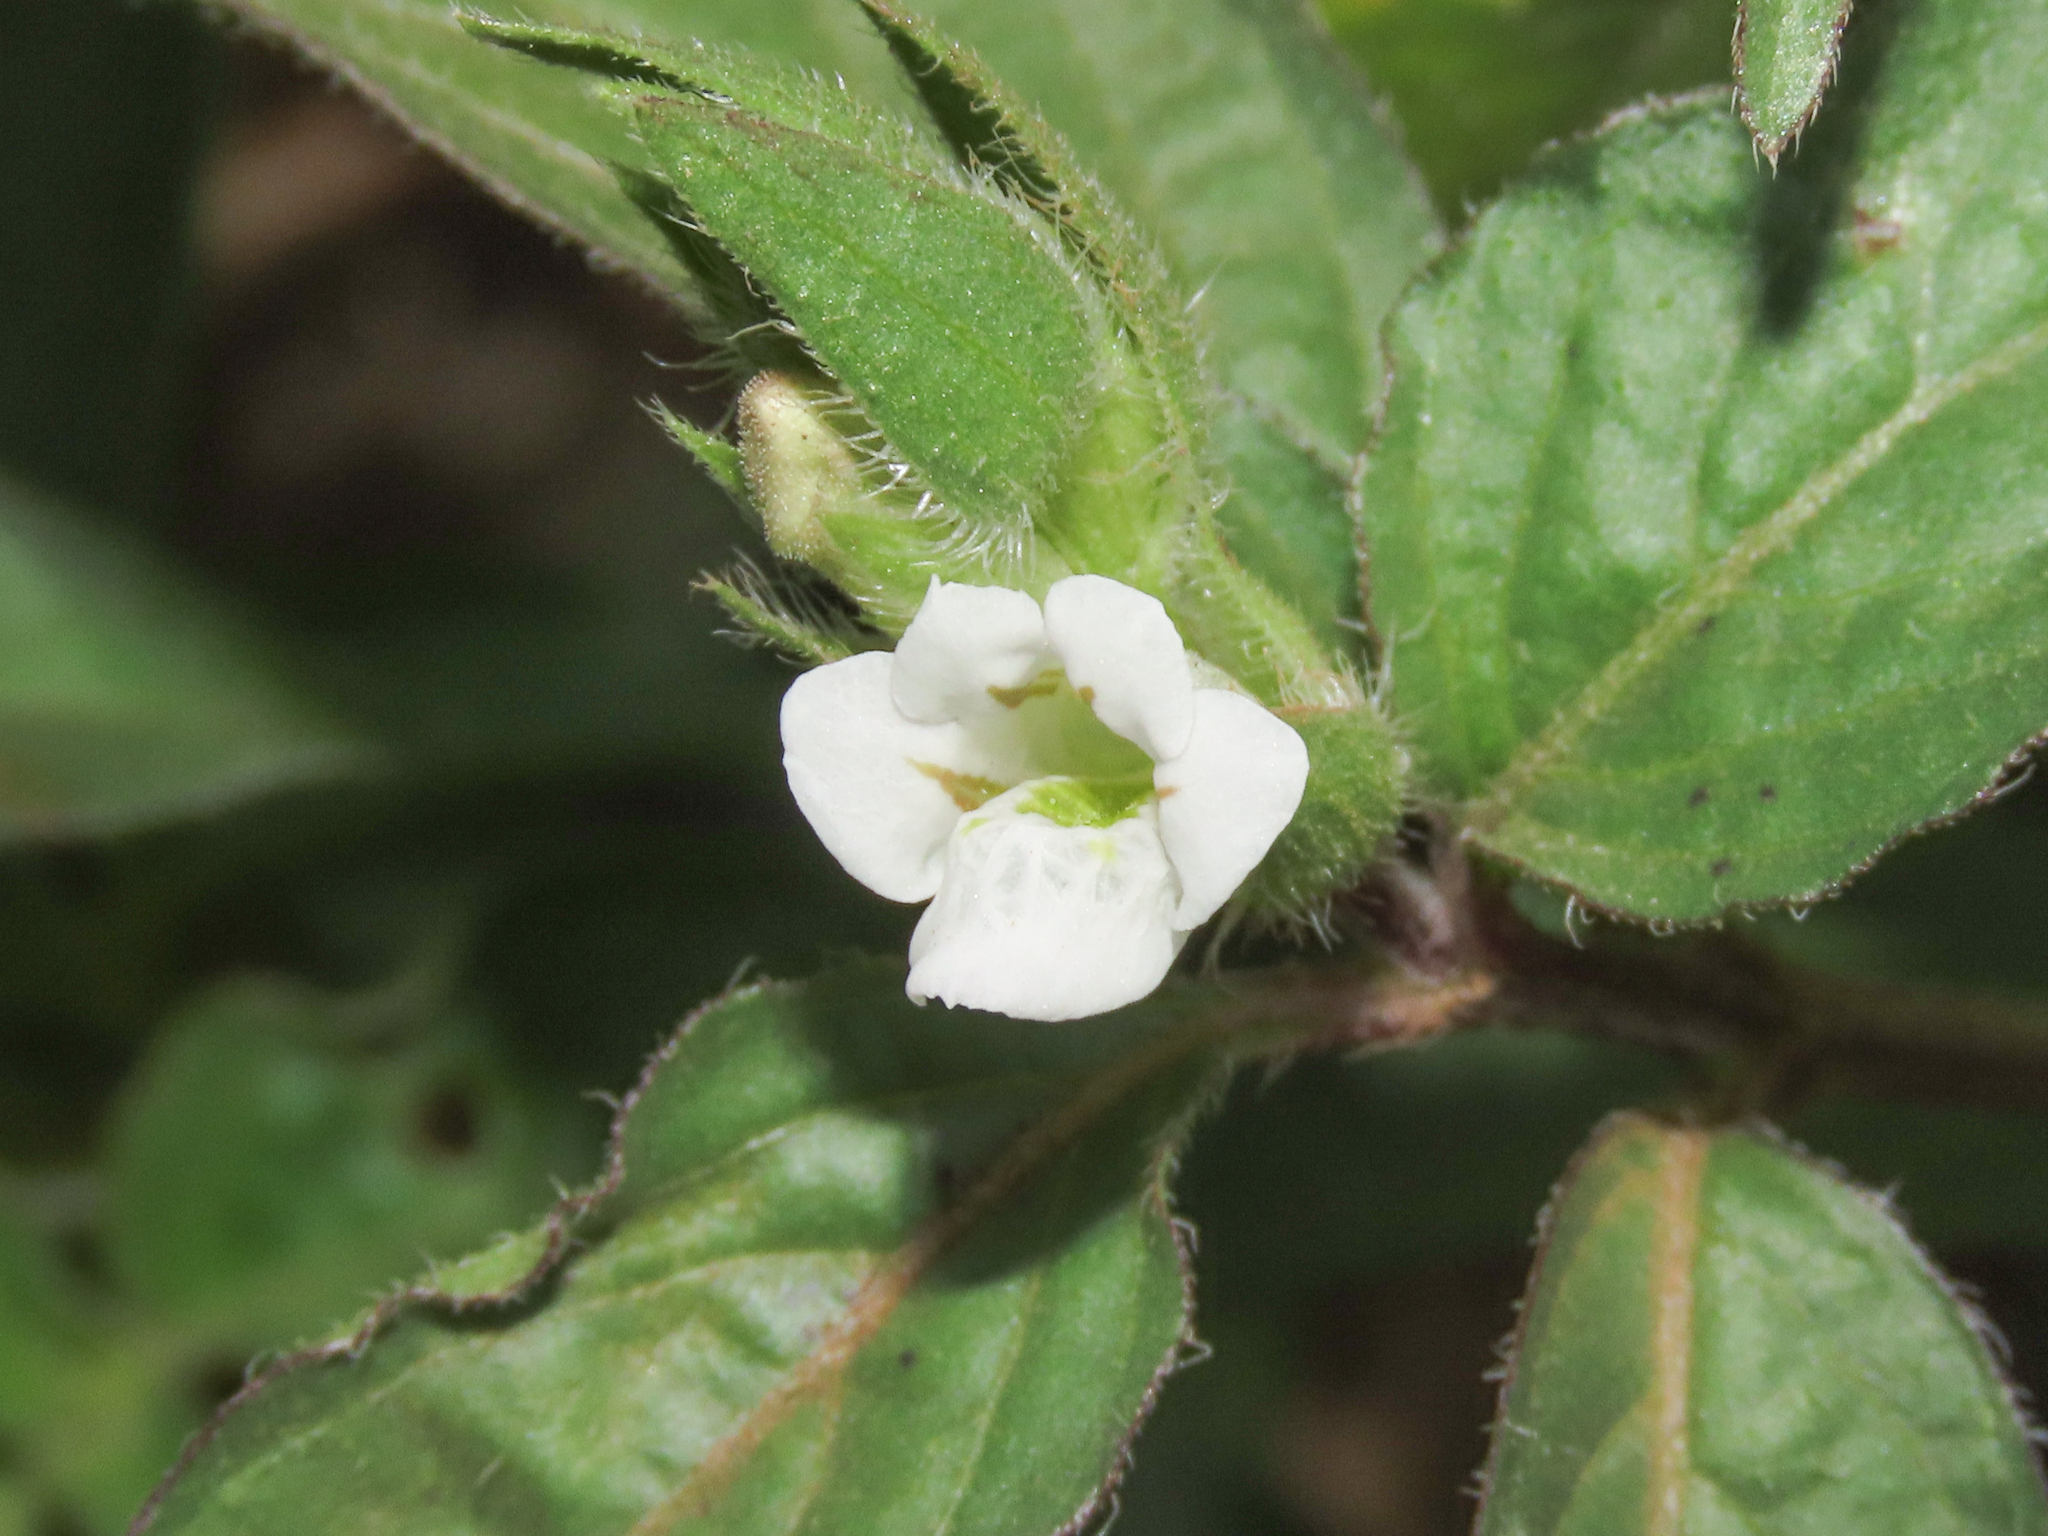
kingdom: Plantae
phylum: Tracheophyta
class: Magnoliopsida
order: Lamiales
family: Acanthaceae
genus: Asystasia
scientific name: Asystasia mysorensis
